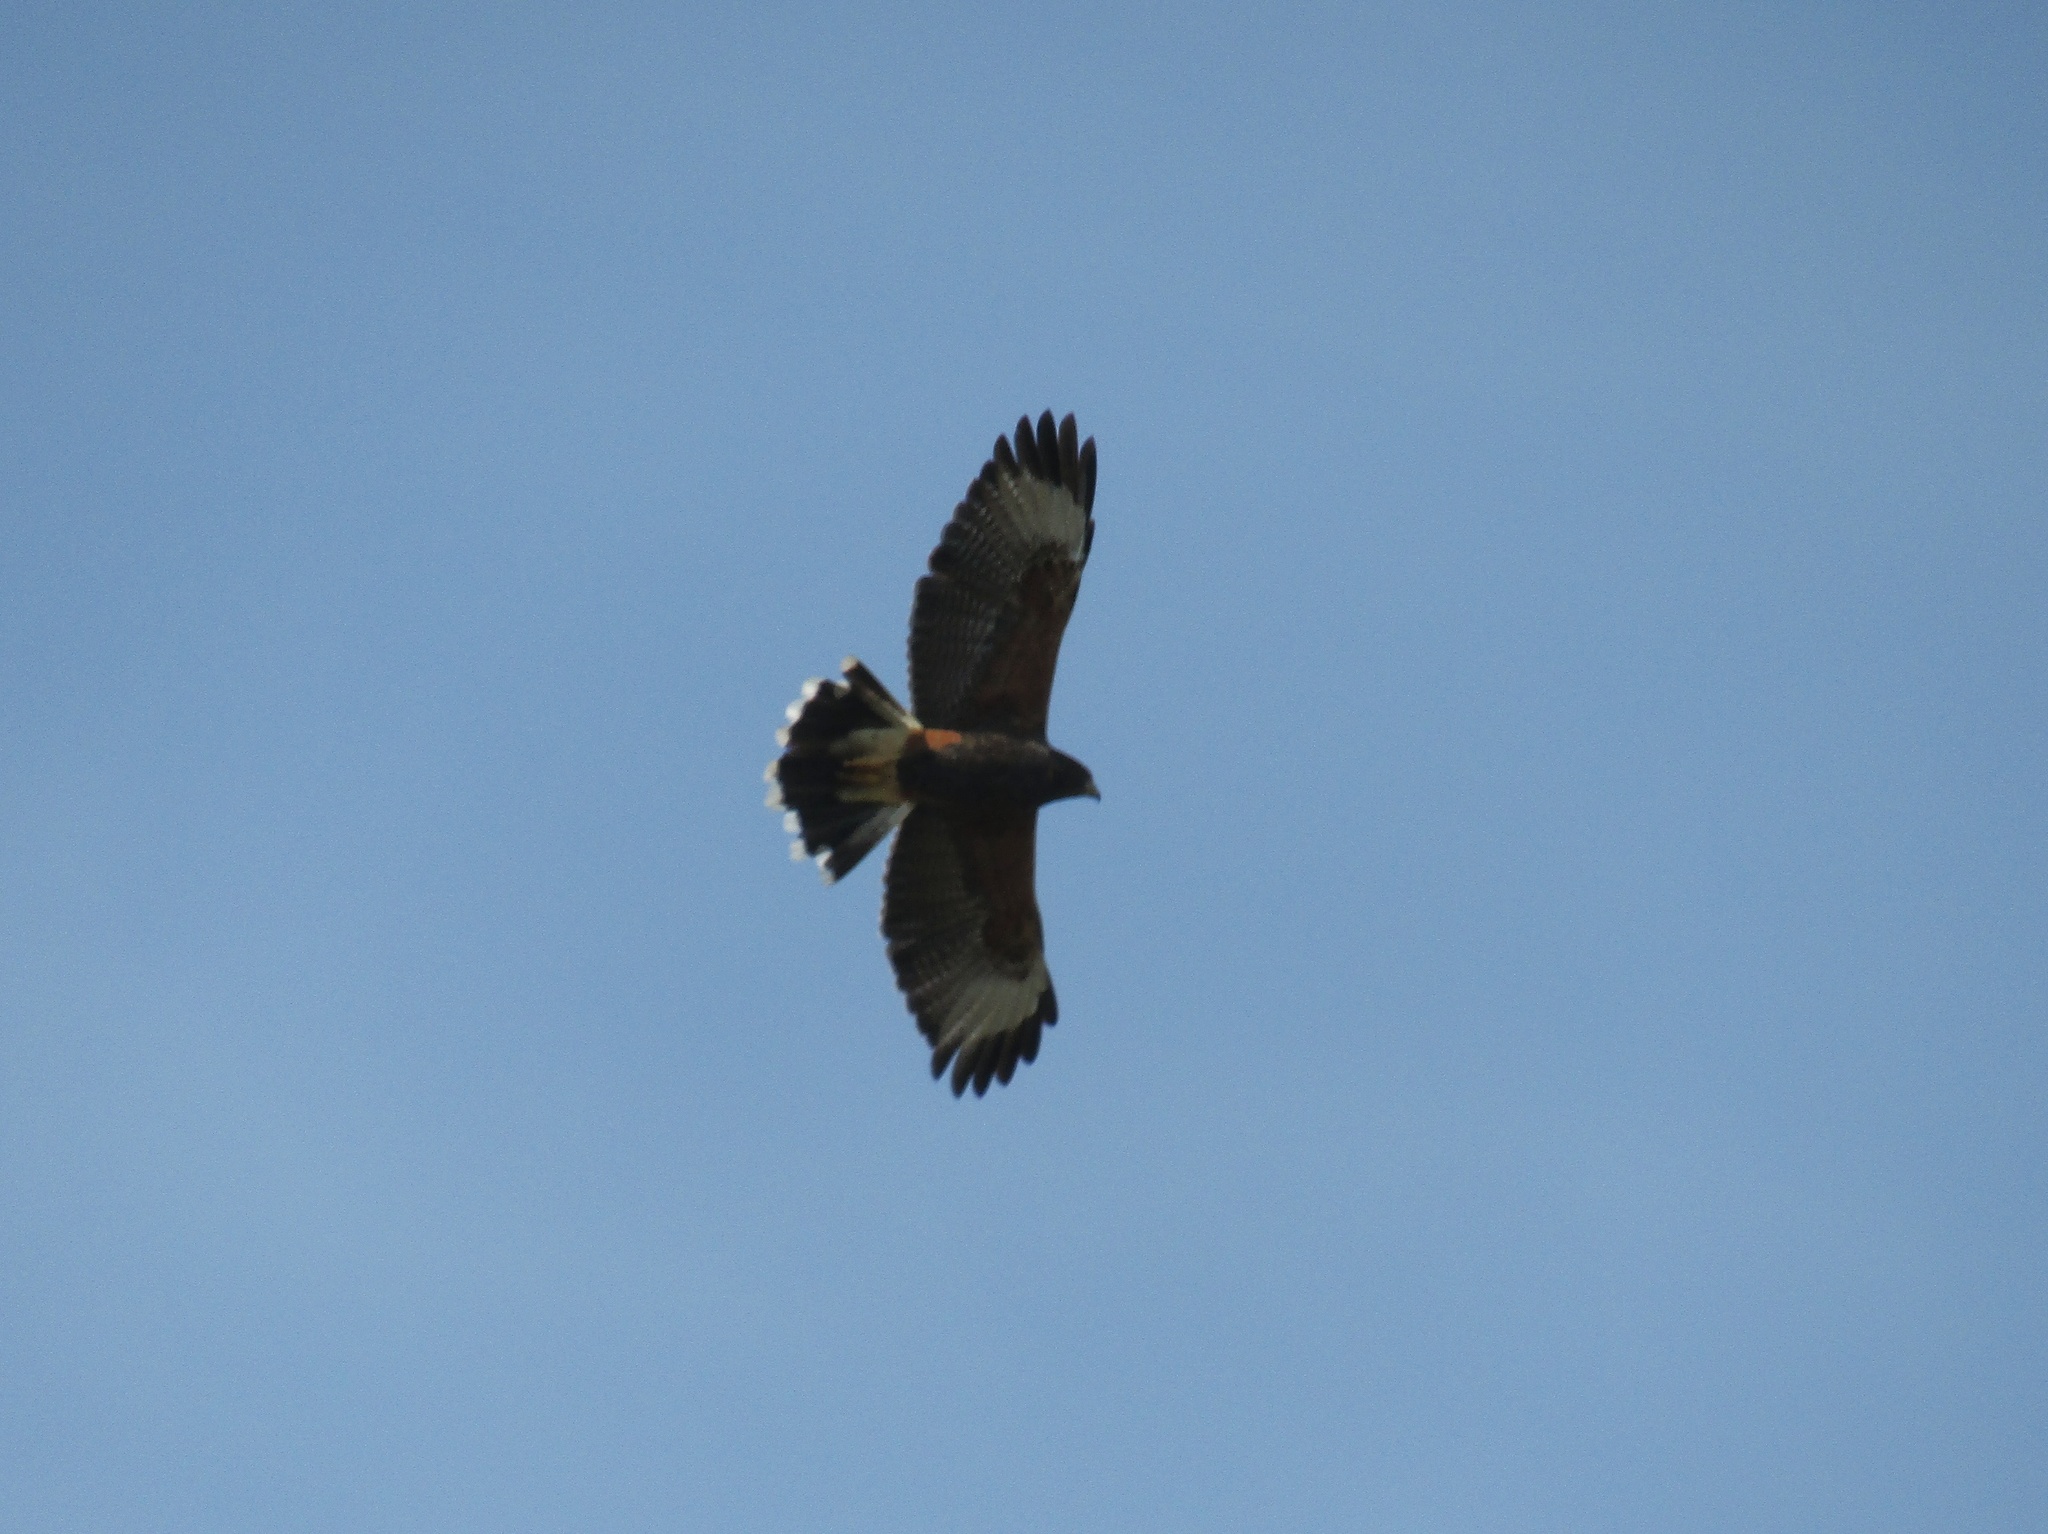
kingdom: Animalia
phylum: Chordata
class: Aves
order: Accipitriformes
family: Accipitridae
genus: Parabuteo
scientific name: Parabuteo unicinctus
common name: Harris's hawk
